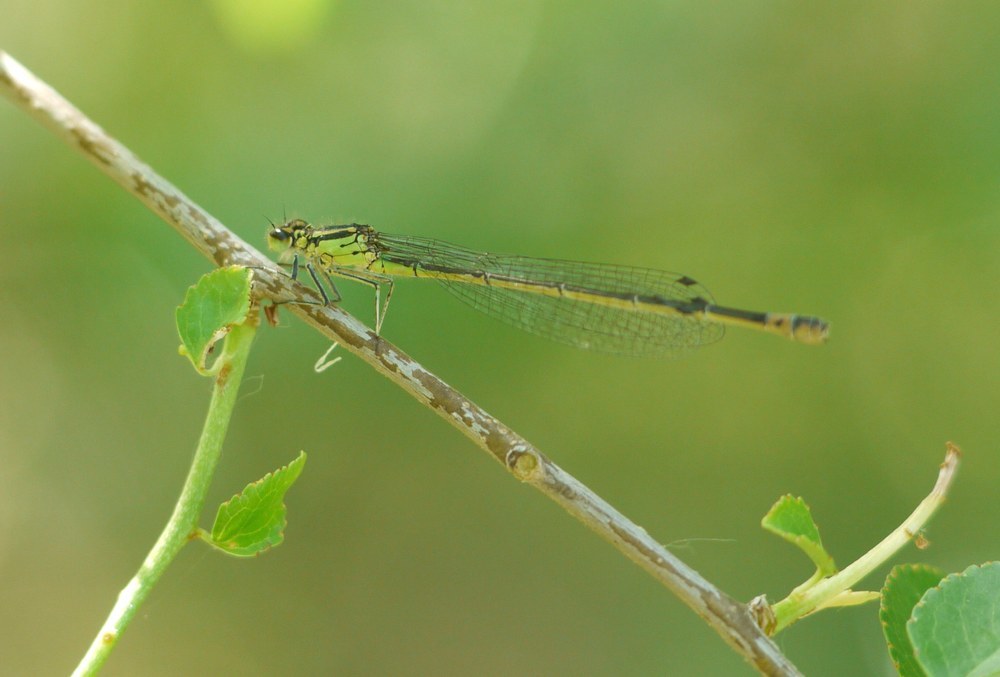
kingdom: Animalia
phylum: Arthropoda
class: Insecta
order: Odonata
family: Coenagrionidae
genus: Coenagrion
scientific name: Coenagrion pulchellum
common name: Variable bluet
